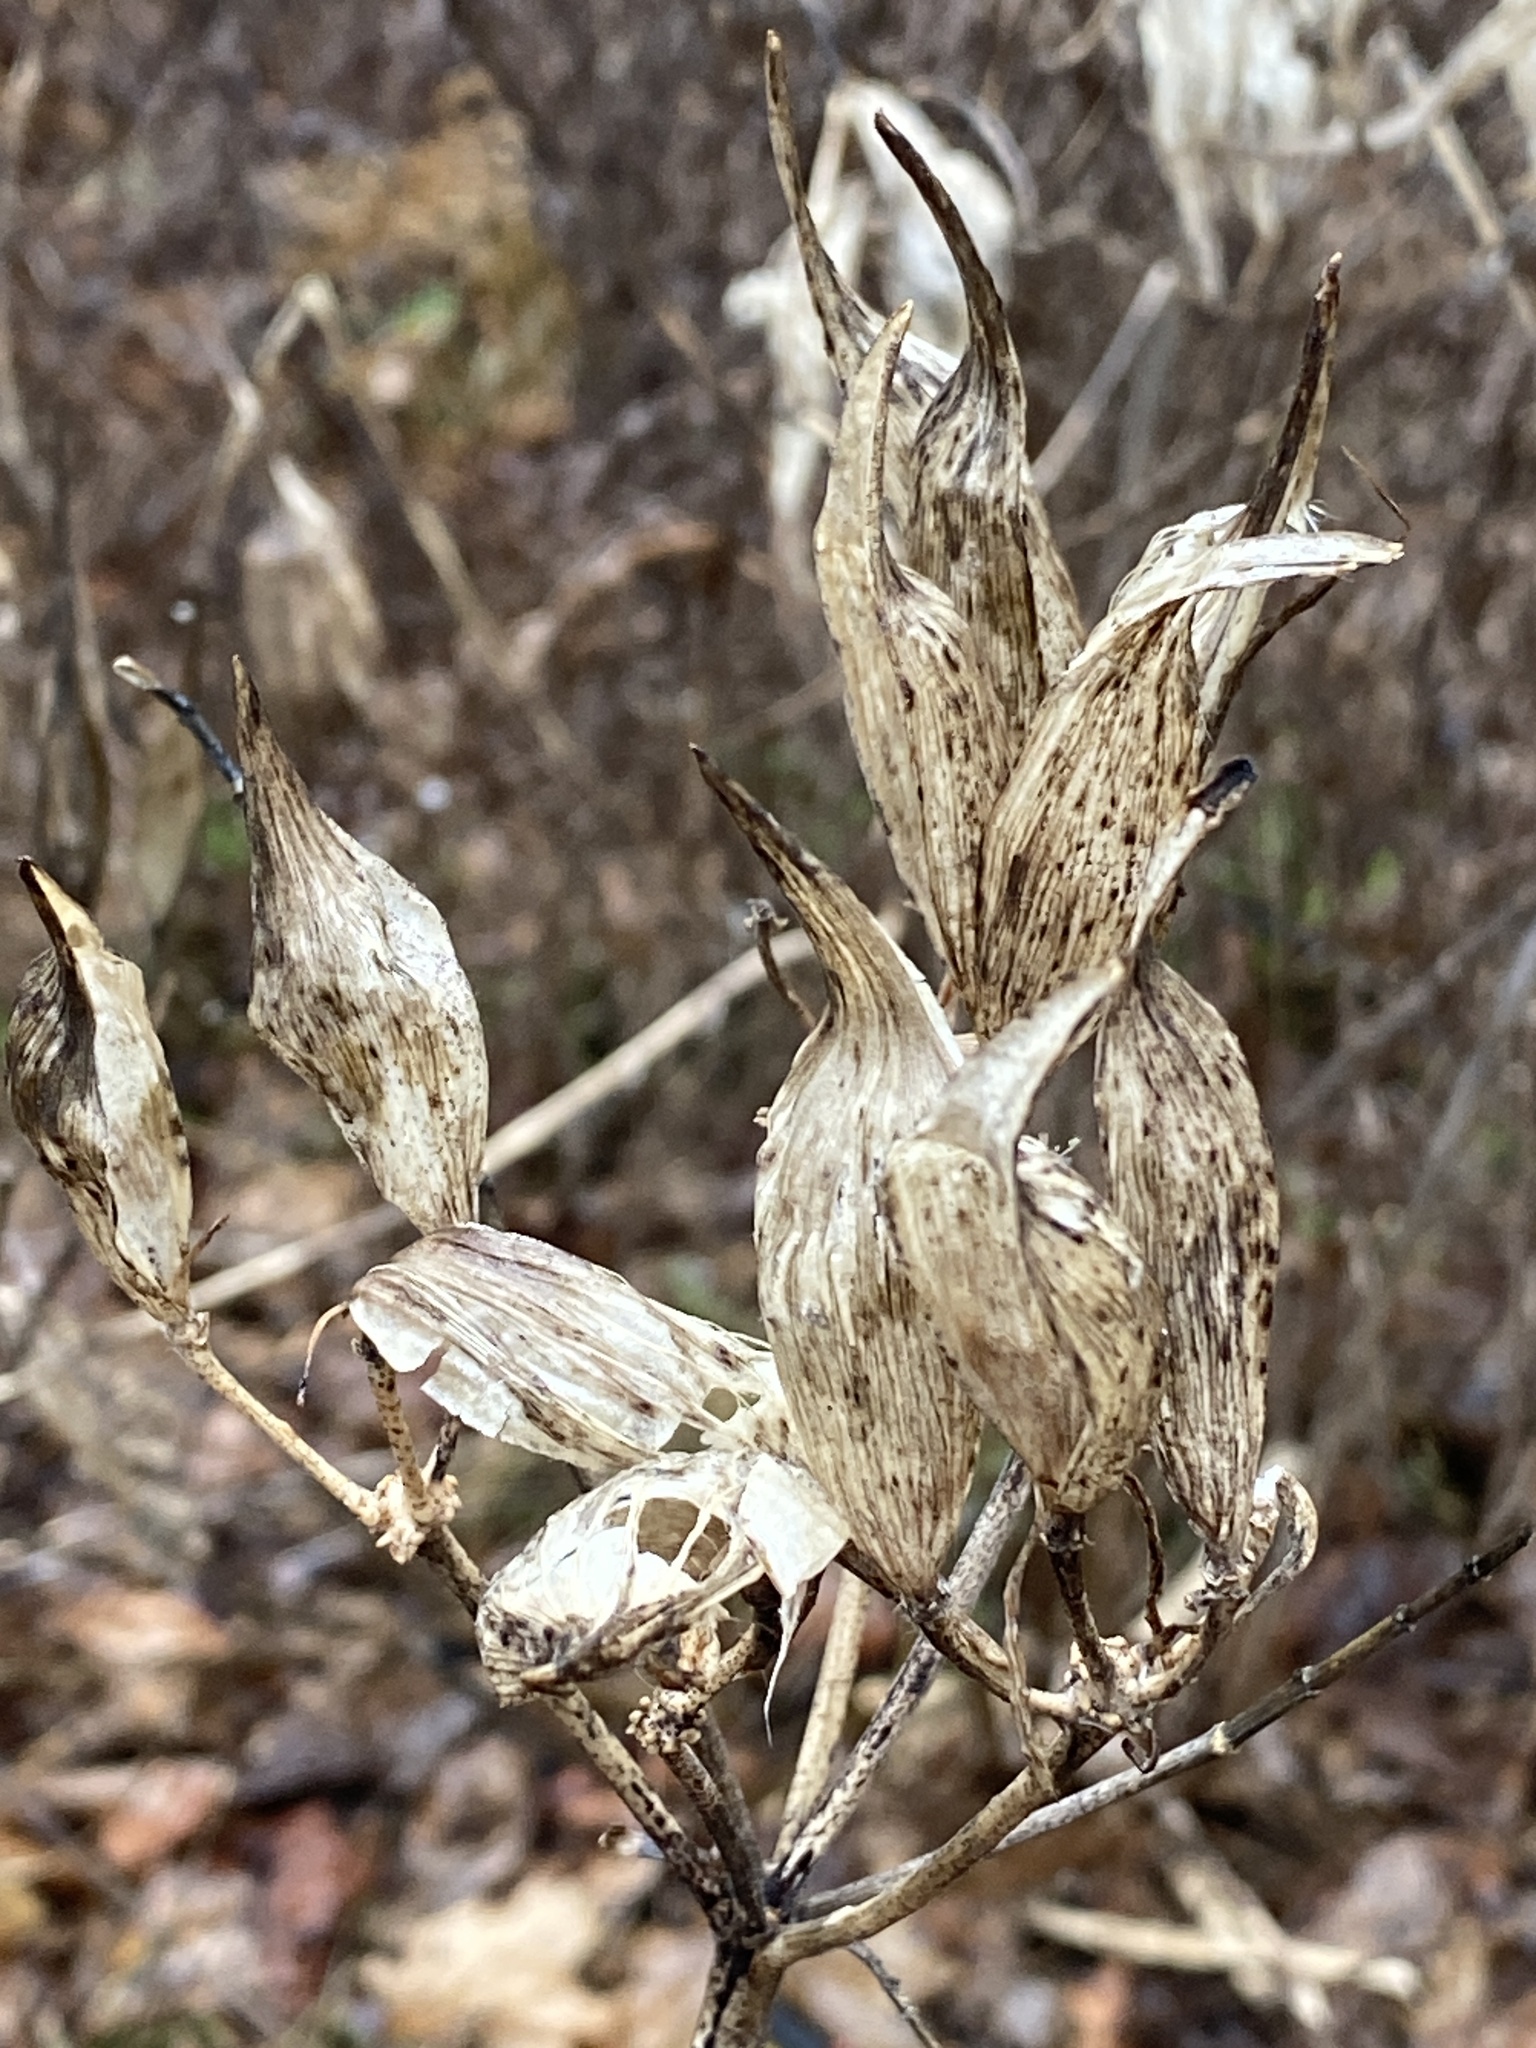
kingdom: Plantae
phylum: Tracheophyta
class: Magnoliopsida
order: Gentianales
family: Apocynaceae
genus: Asclepias
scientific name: Asclepias incarnata
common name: Swamp milkweed
